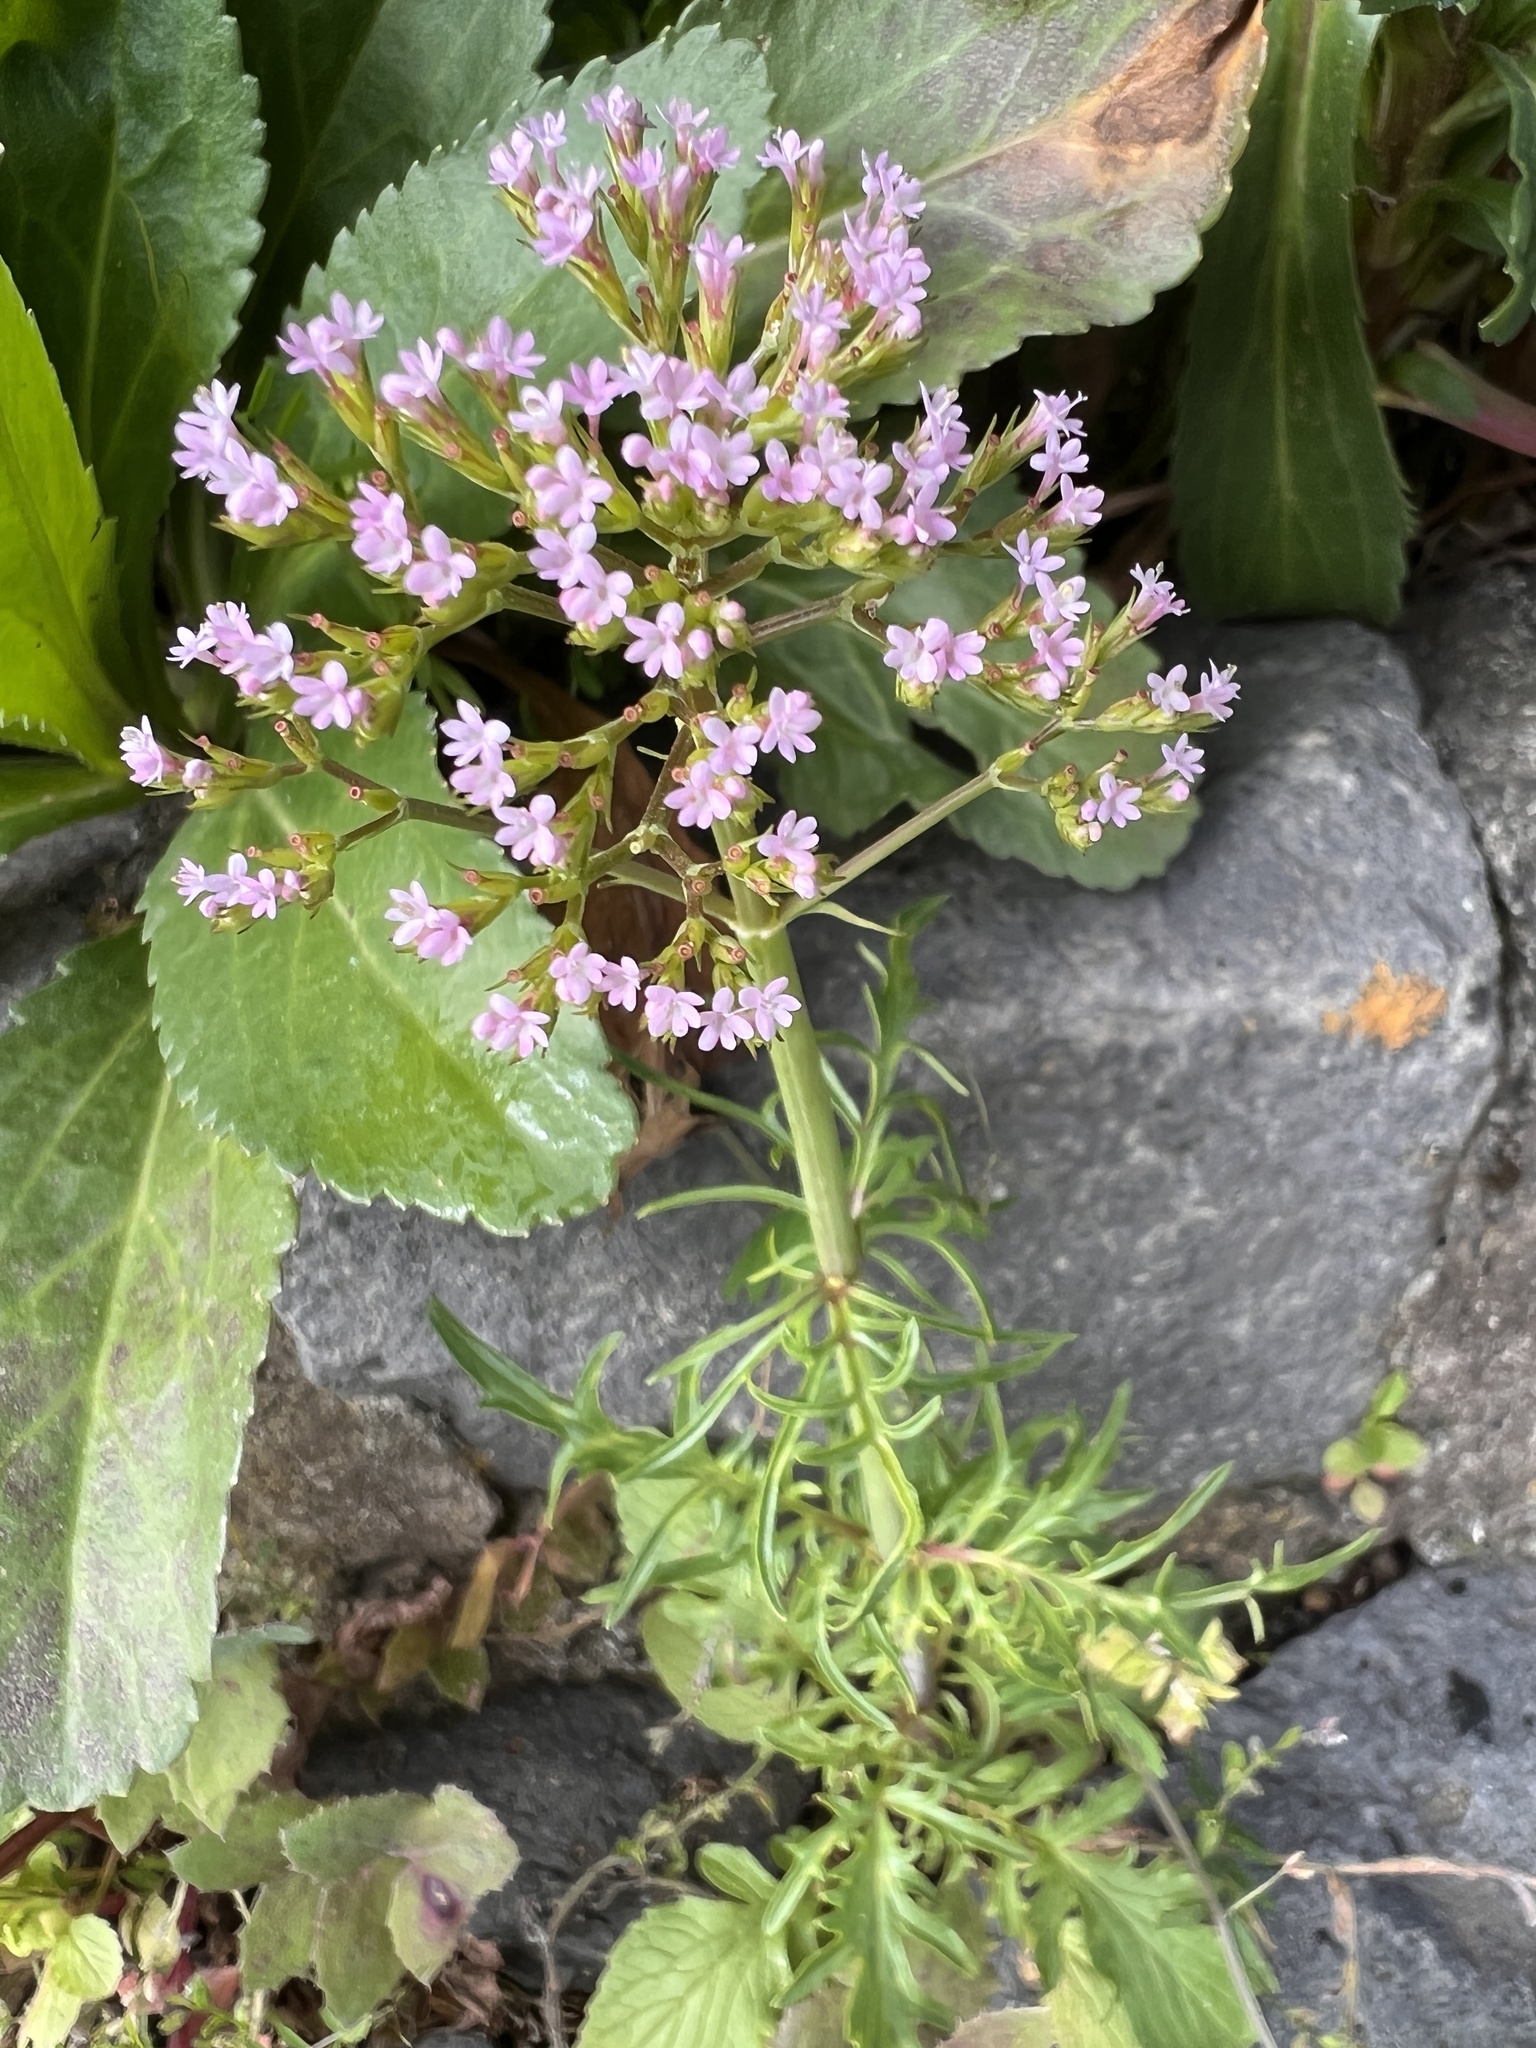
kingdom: Plantae
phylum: Tracheophyta
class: Magnoliopsida
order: Dipsacales
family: Caprifoliaceae
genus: Centranthus
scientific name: Centranthus calcitrapae
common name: Annual valerian
